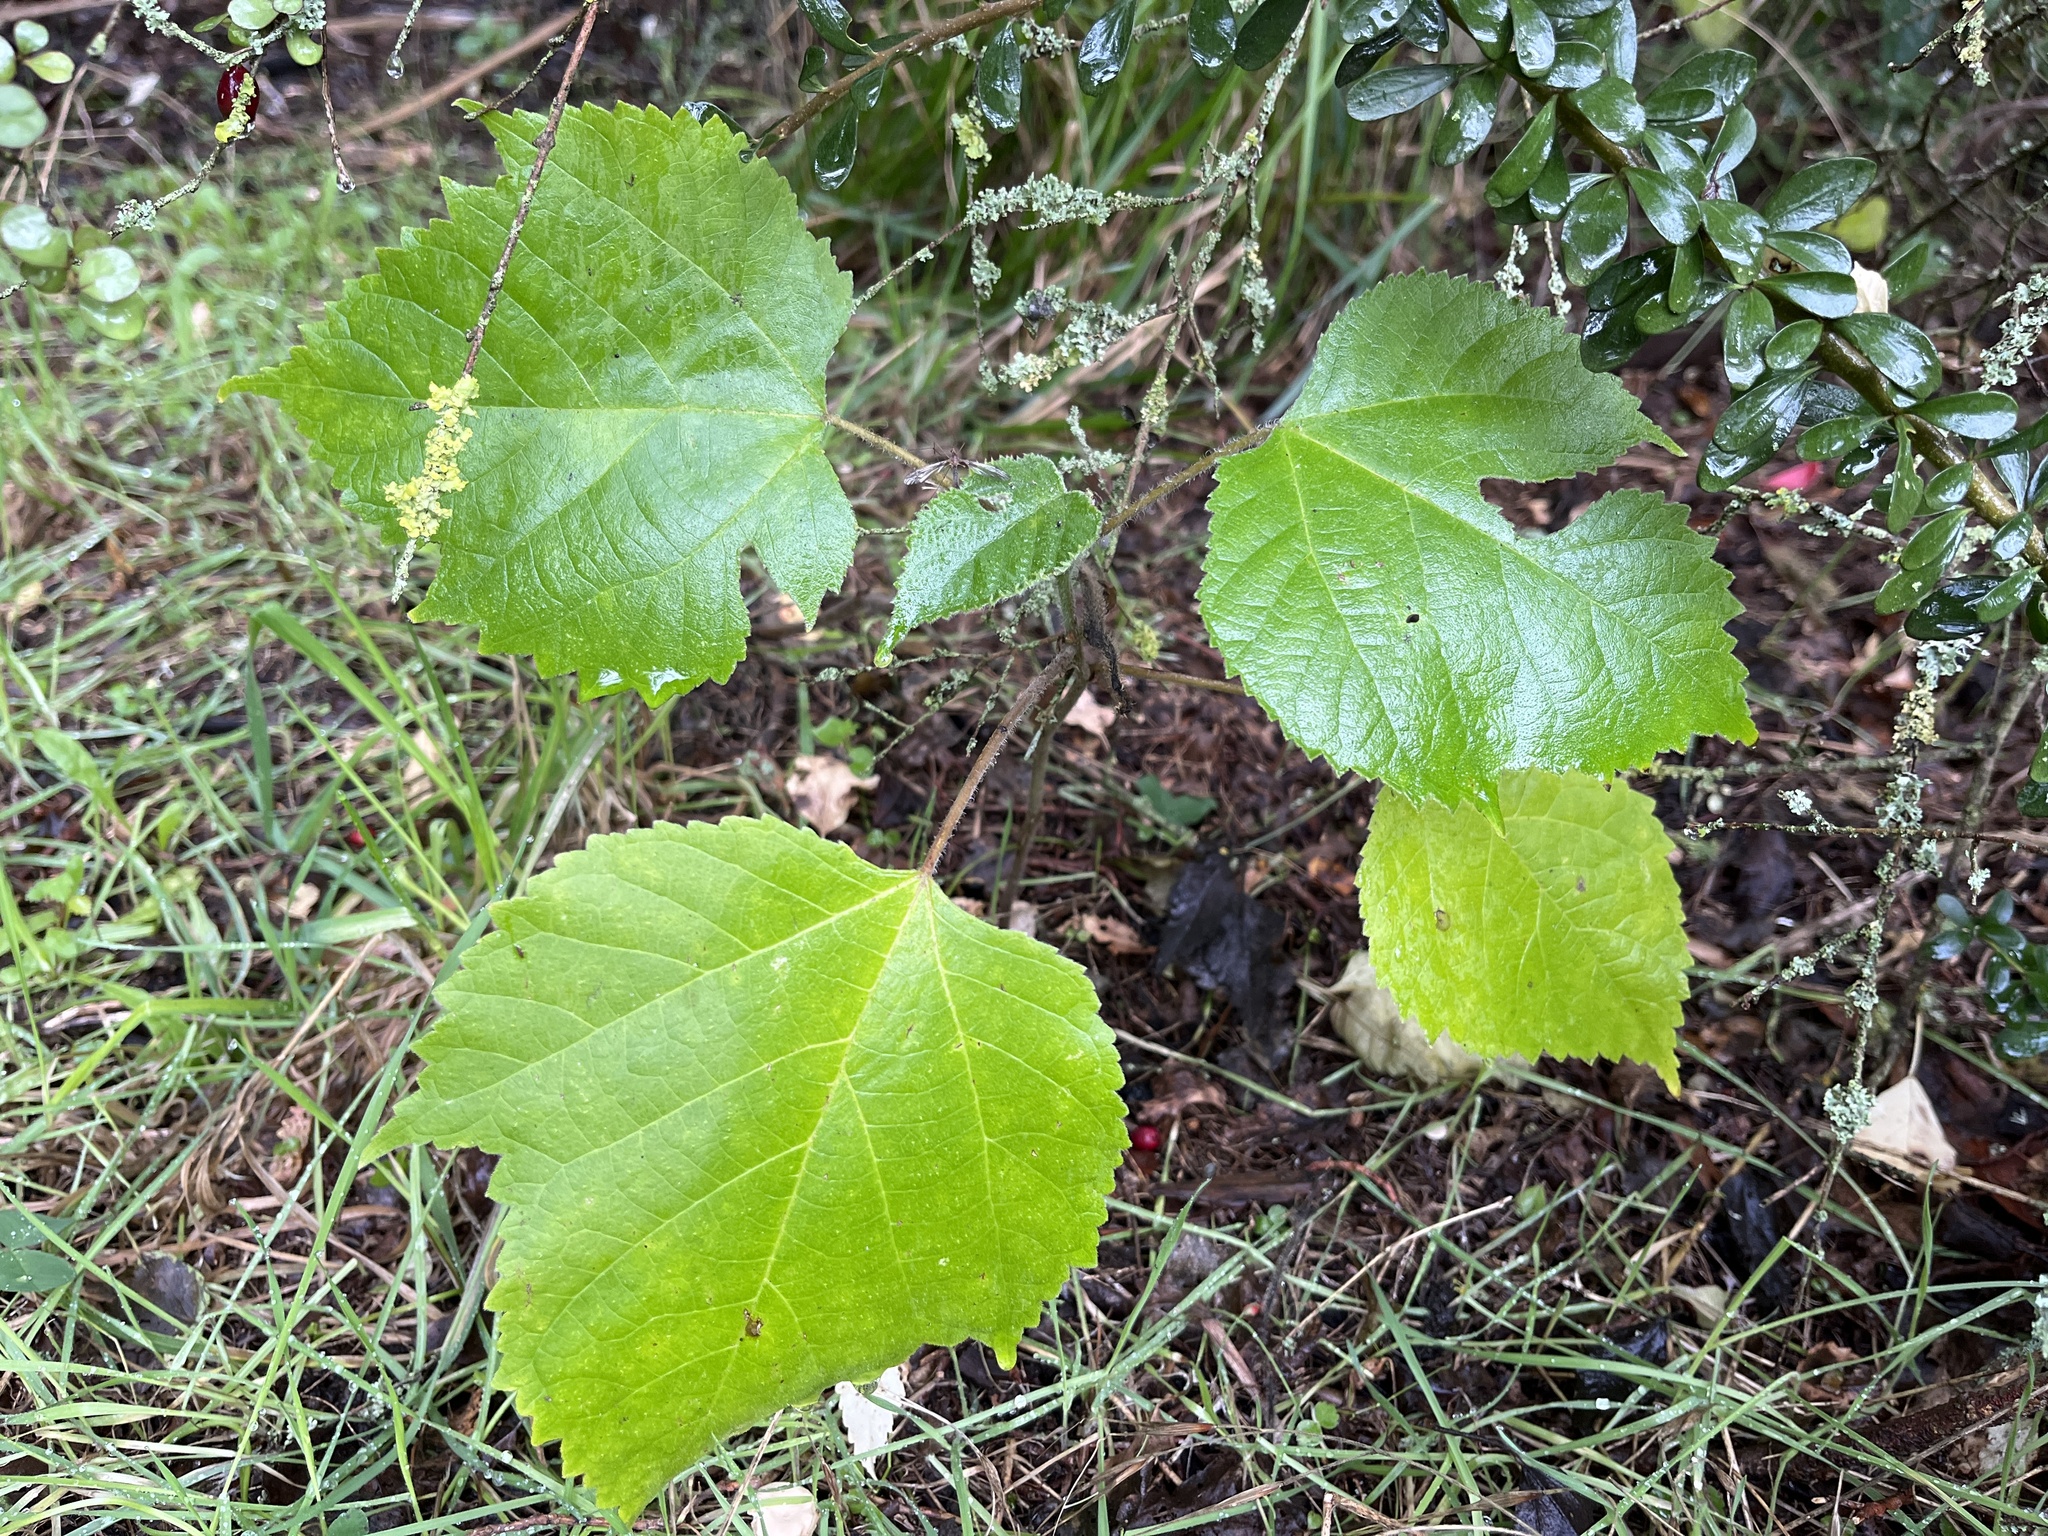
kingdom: Plantae
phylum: Tracheophyta
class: Magnoliopsida
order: Rosales
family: Moraceae
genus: Broussonetia
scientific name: Broussonetia papyrifera
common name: Paper mulberry
